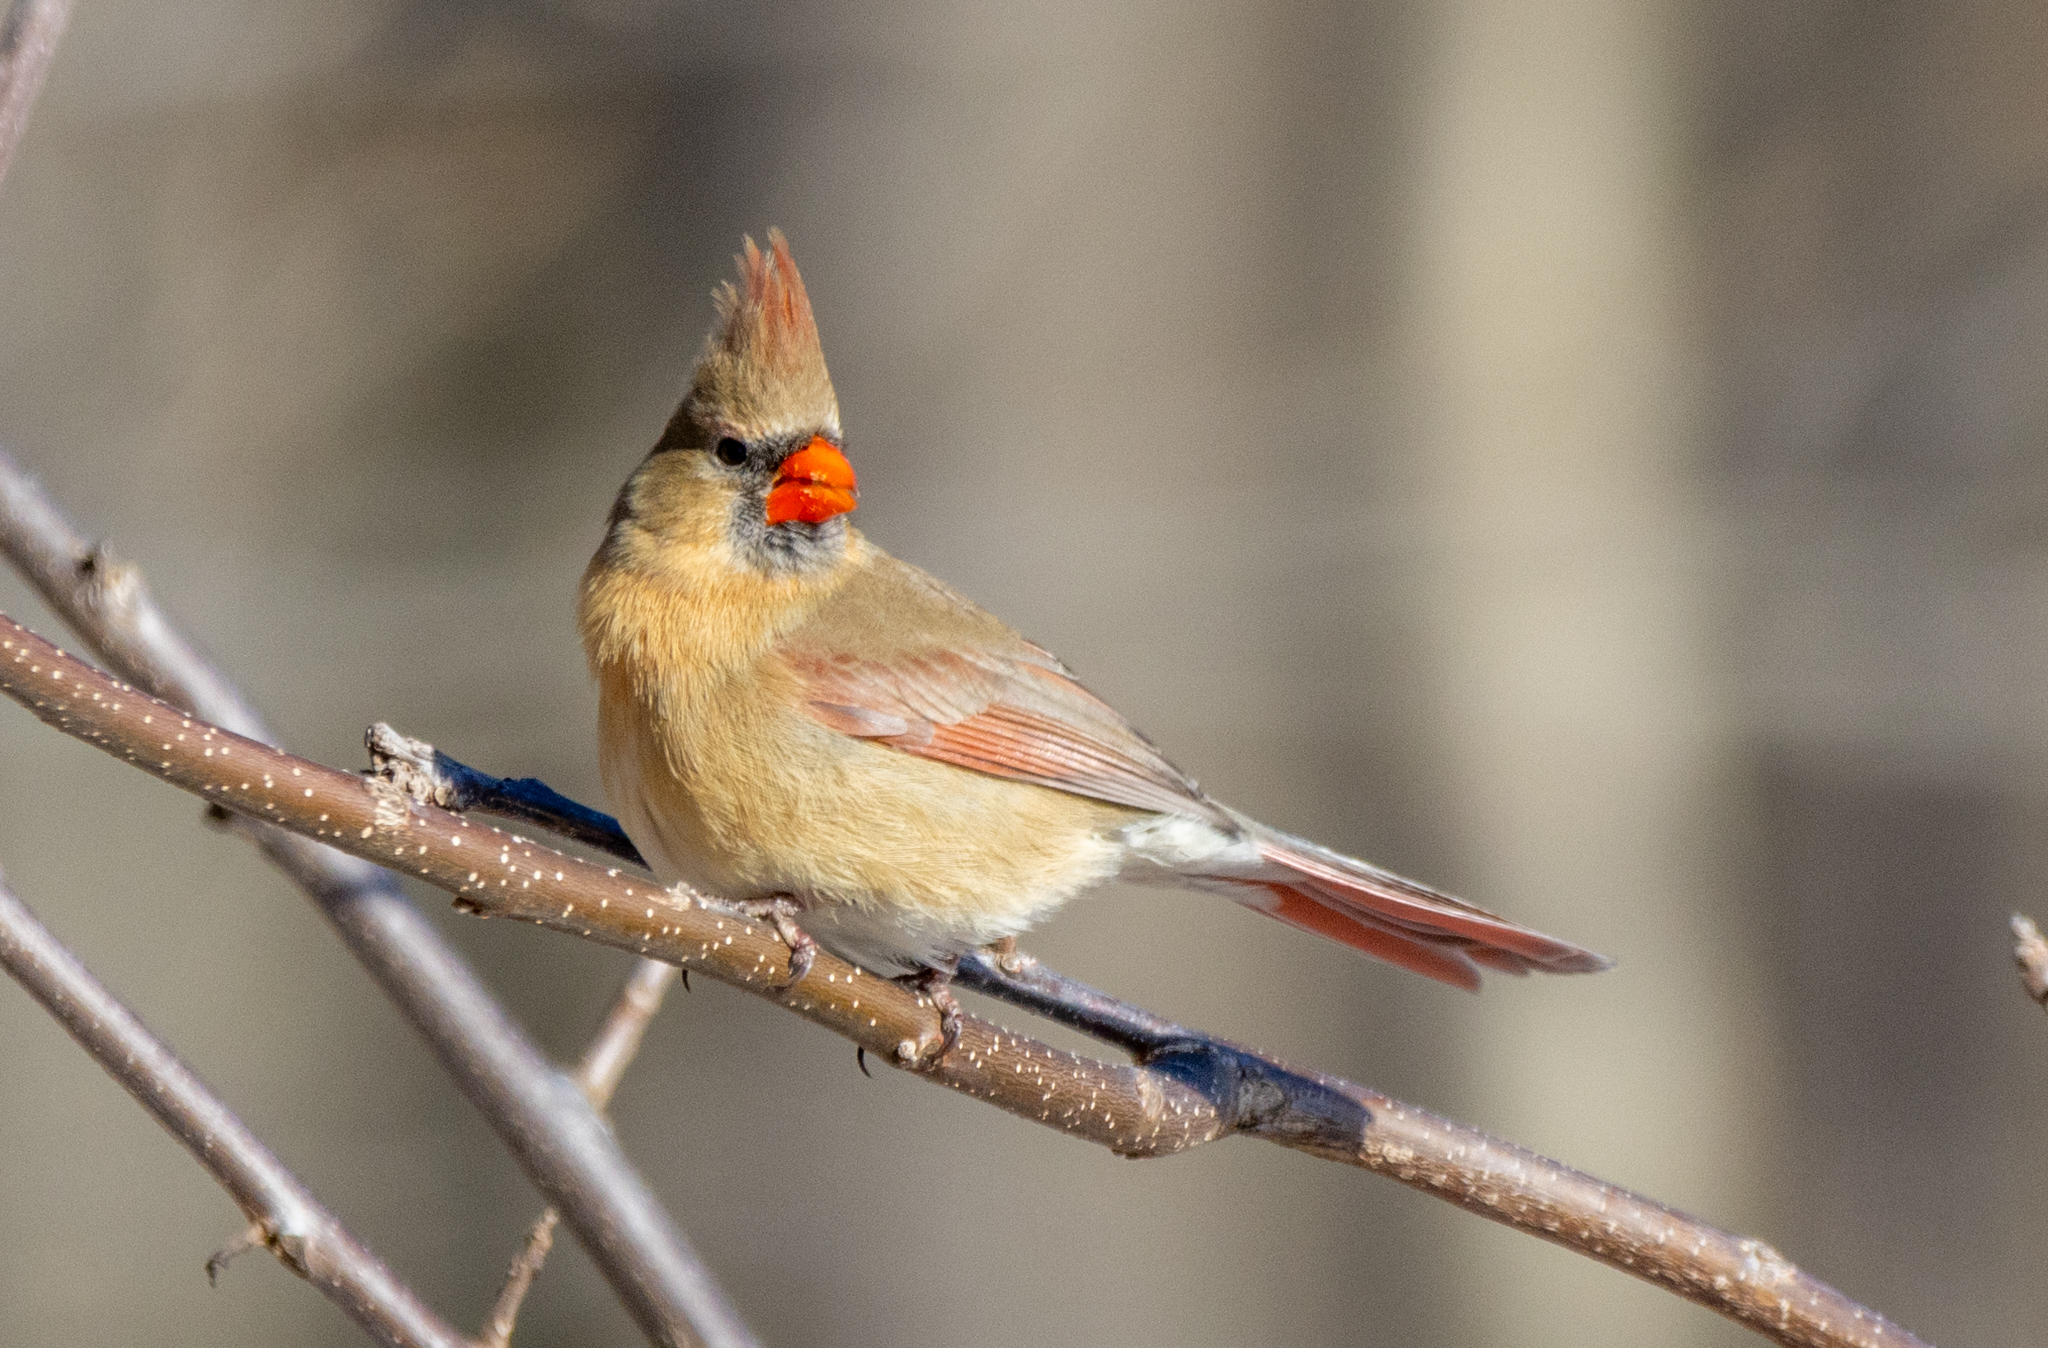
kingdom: Animalia
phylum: Chordata
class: Aves
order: Passeriformes
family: Cardinalidae
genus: Cardinalis
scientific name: Cardinalis cardinalis
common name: Northern cardinal
